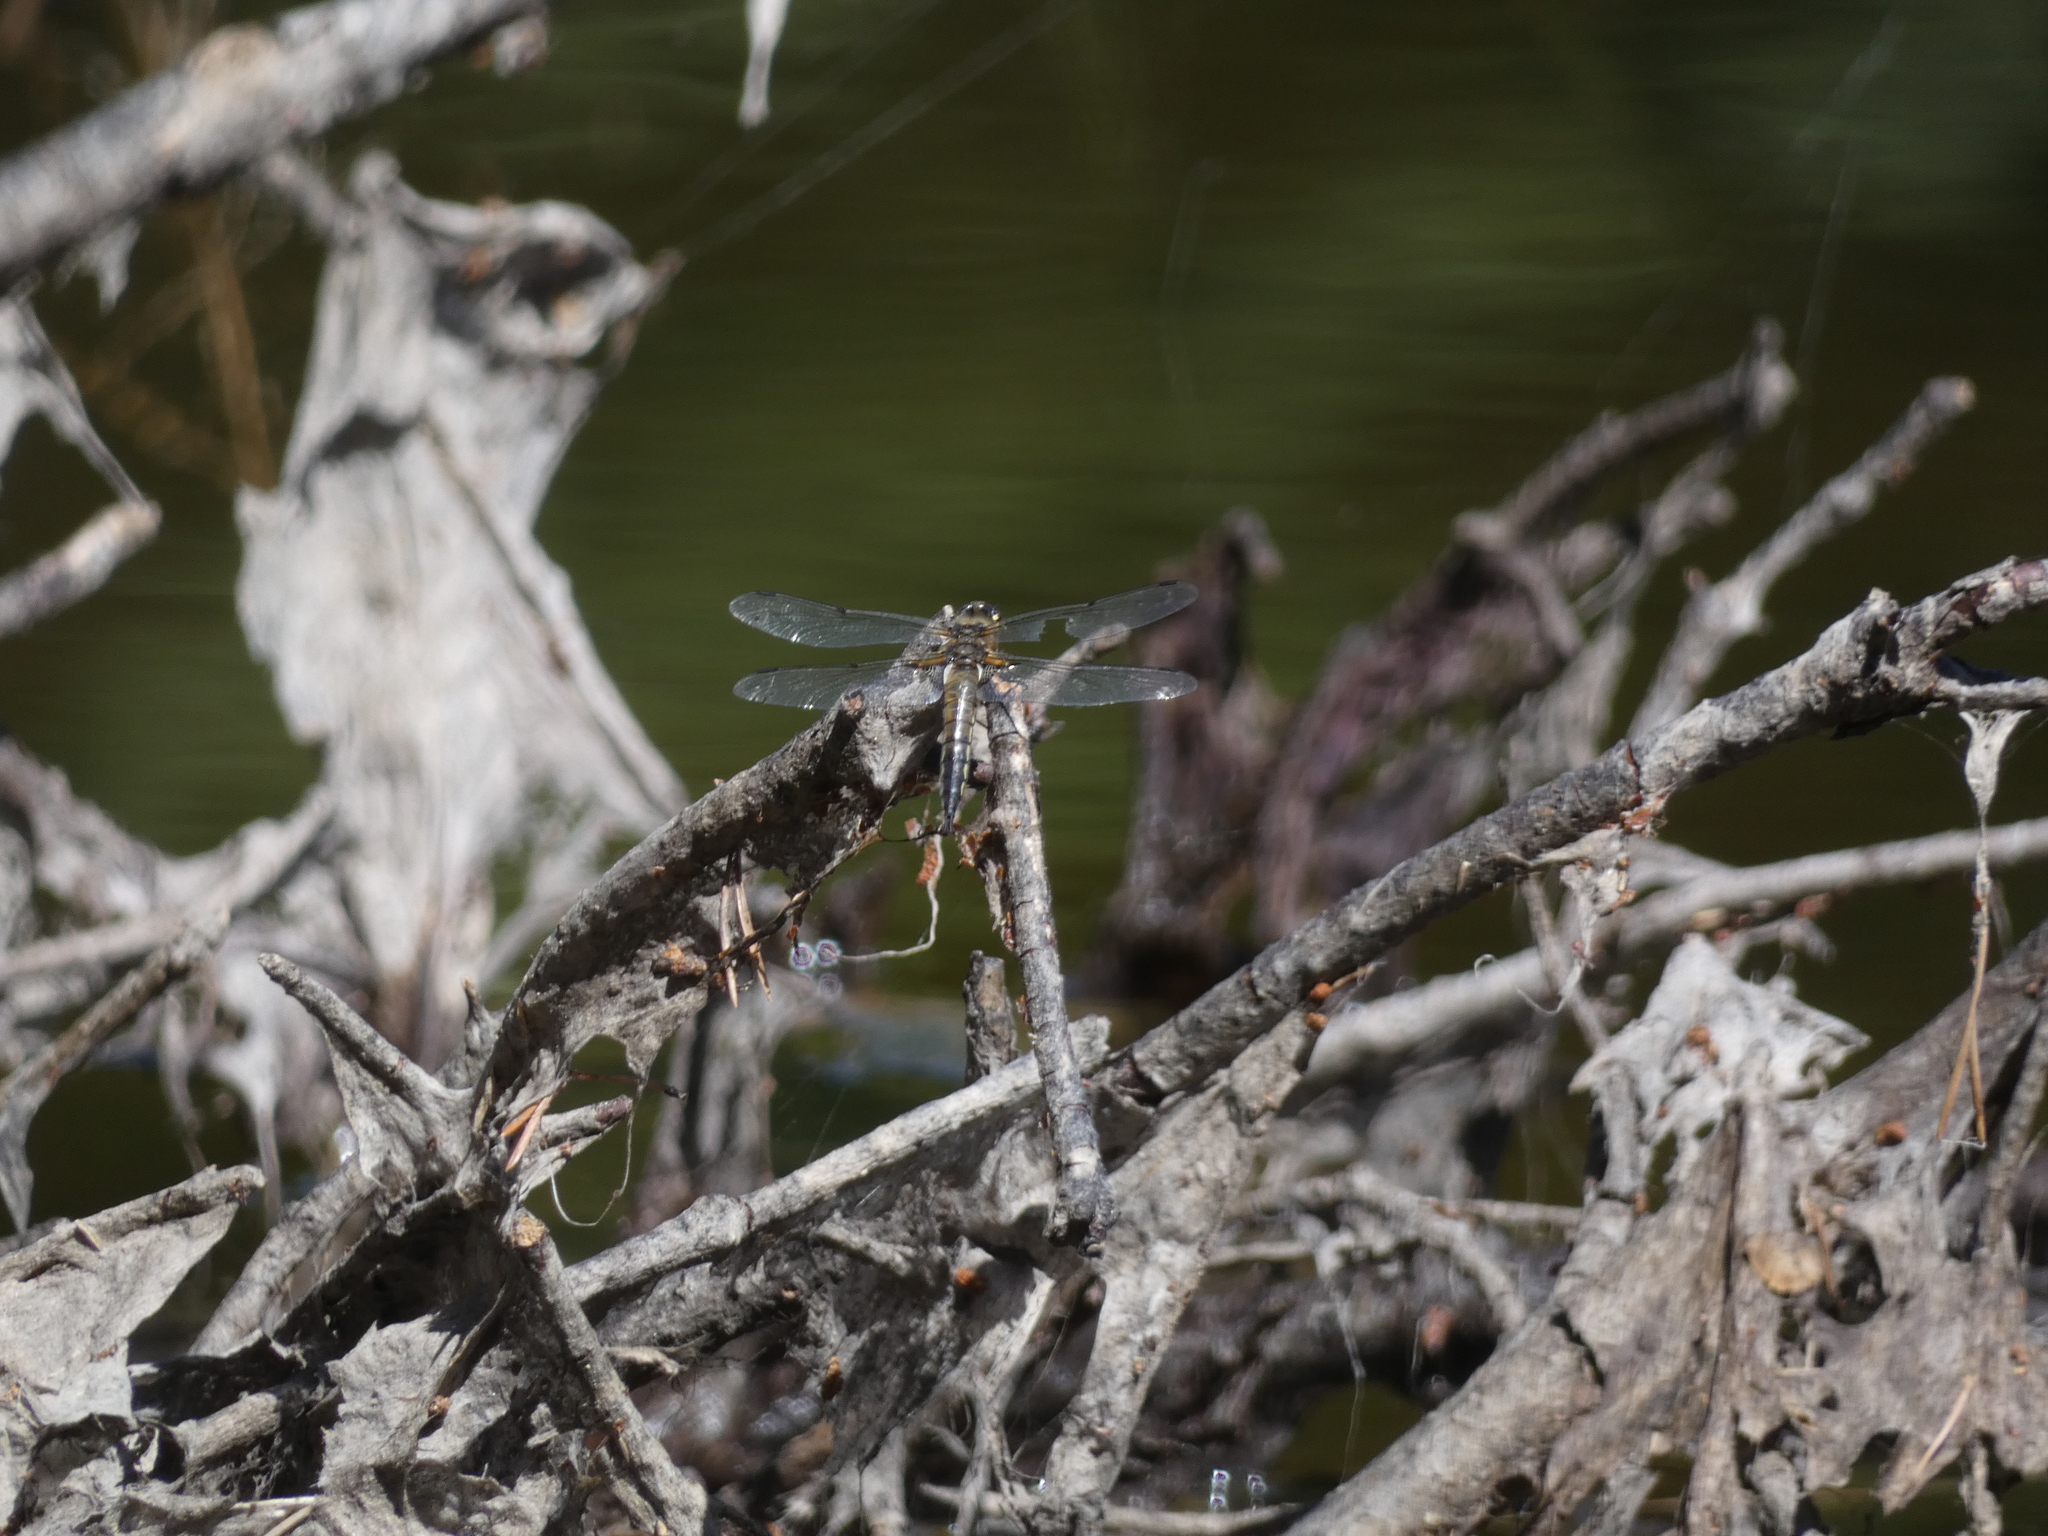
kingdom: Animalia
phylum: Arthropoda
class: Insecta
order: Odonata
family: Libellulidae
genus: Libellula
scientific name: Libellula quadrimaculata
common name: Four-spotted chaser
